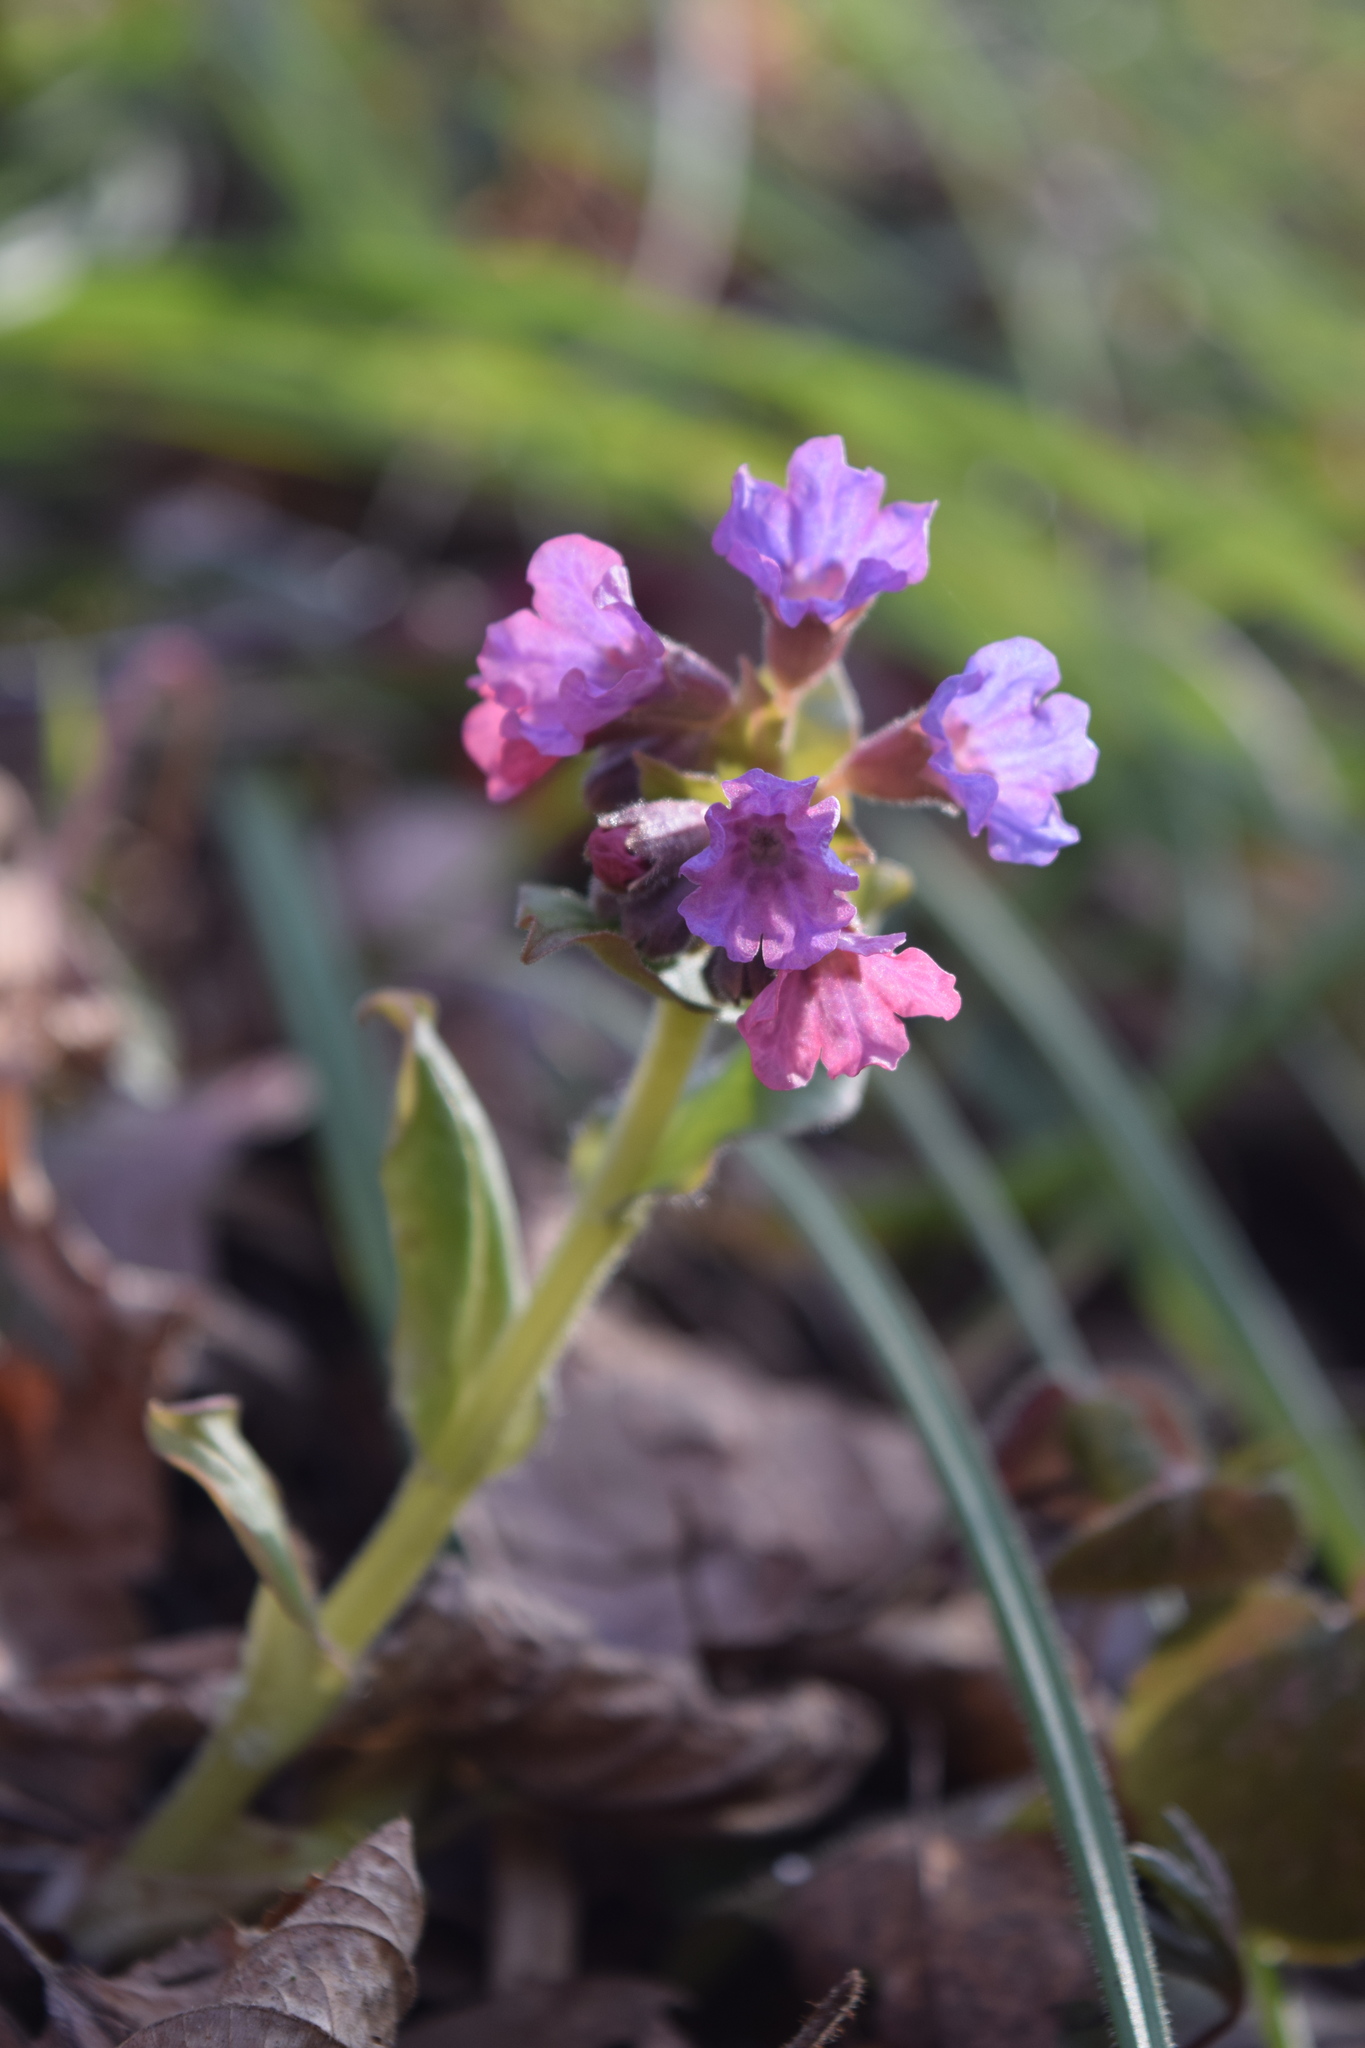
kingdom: Plantae
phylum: Tracheophyta
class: Magnoliopsida
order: Boraginales
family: Boraginaceae
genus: Pulmonaria
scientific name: Pulmonaria obscura
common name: Suffolk lungwort
